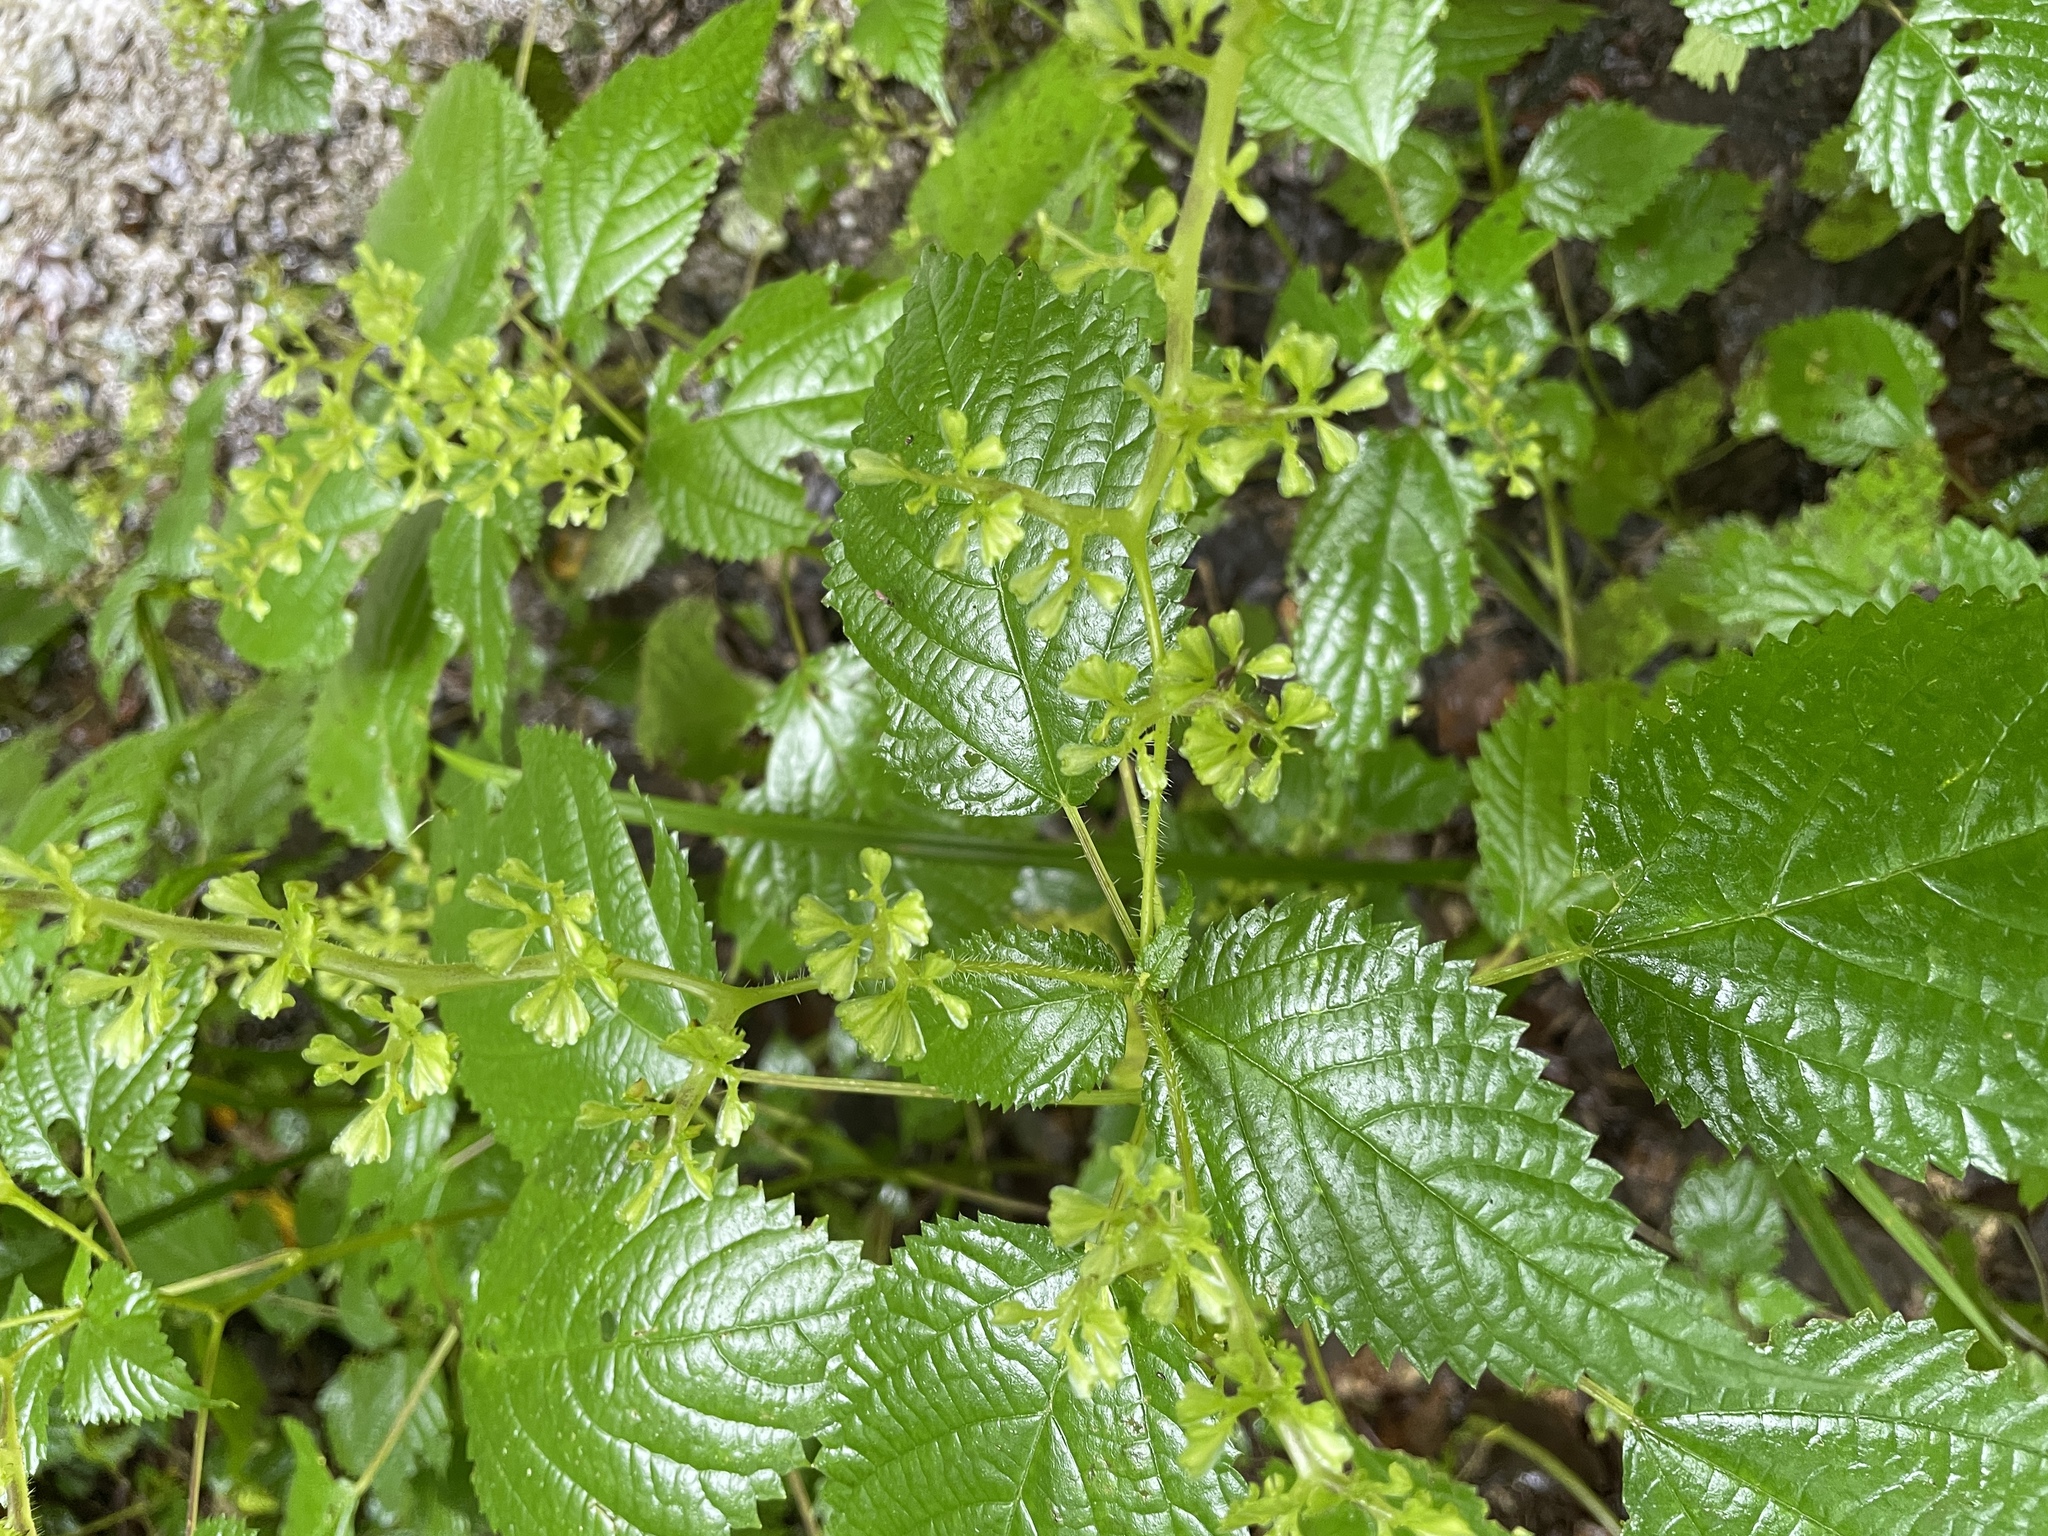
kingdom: Plantae
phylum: Tracheophyta
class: Magnoliopsida
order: Rosales
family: Urticaceae
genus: Laportea
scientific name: Laportea canadensis
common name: Canada nettle
